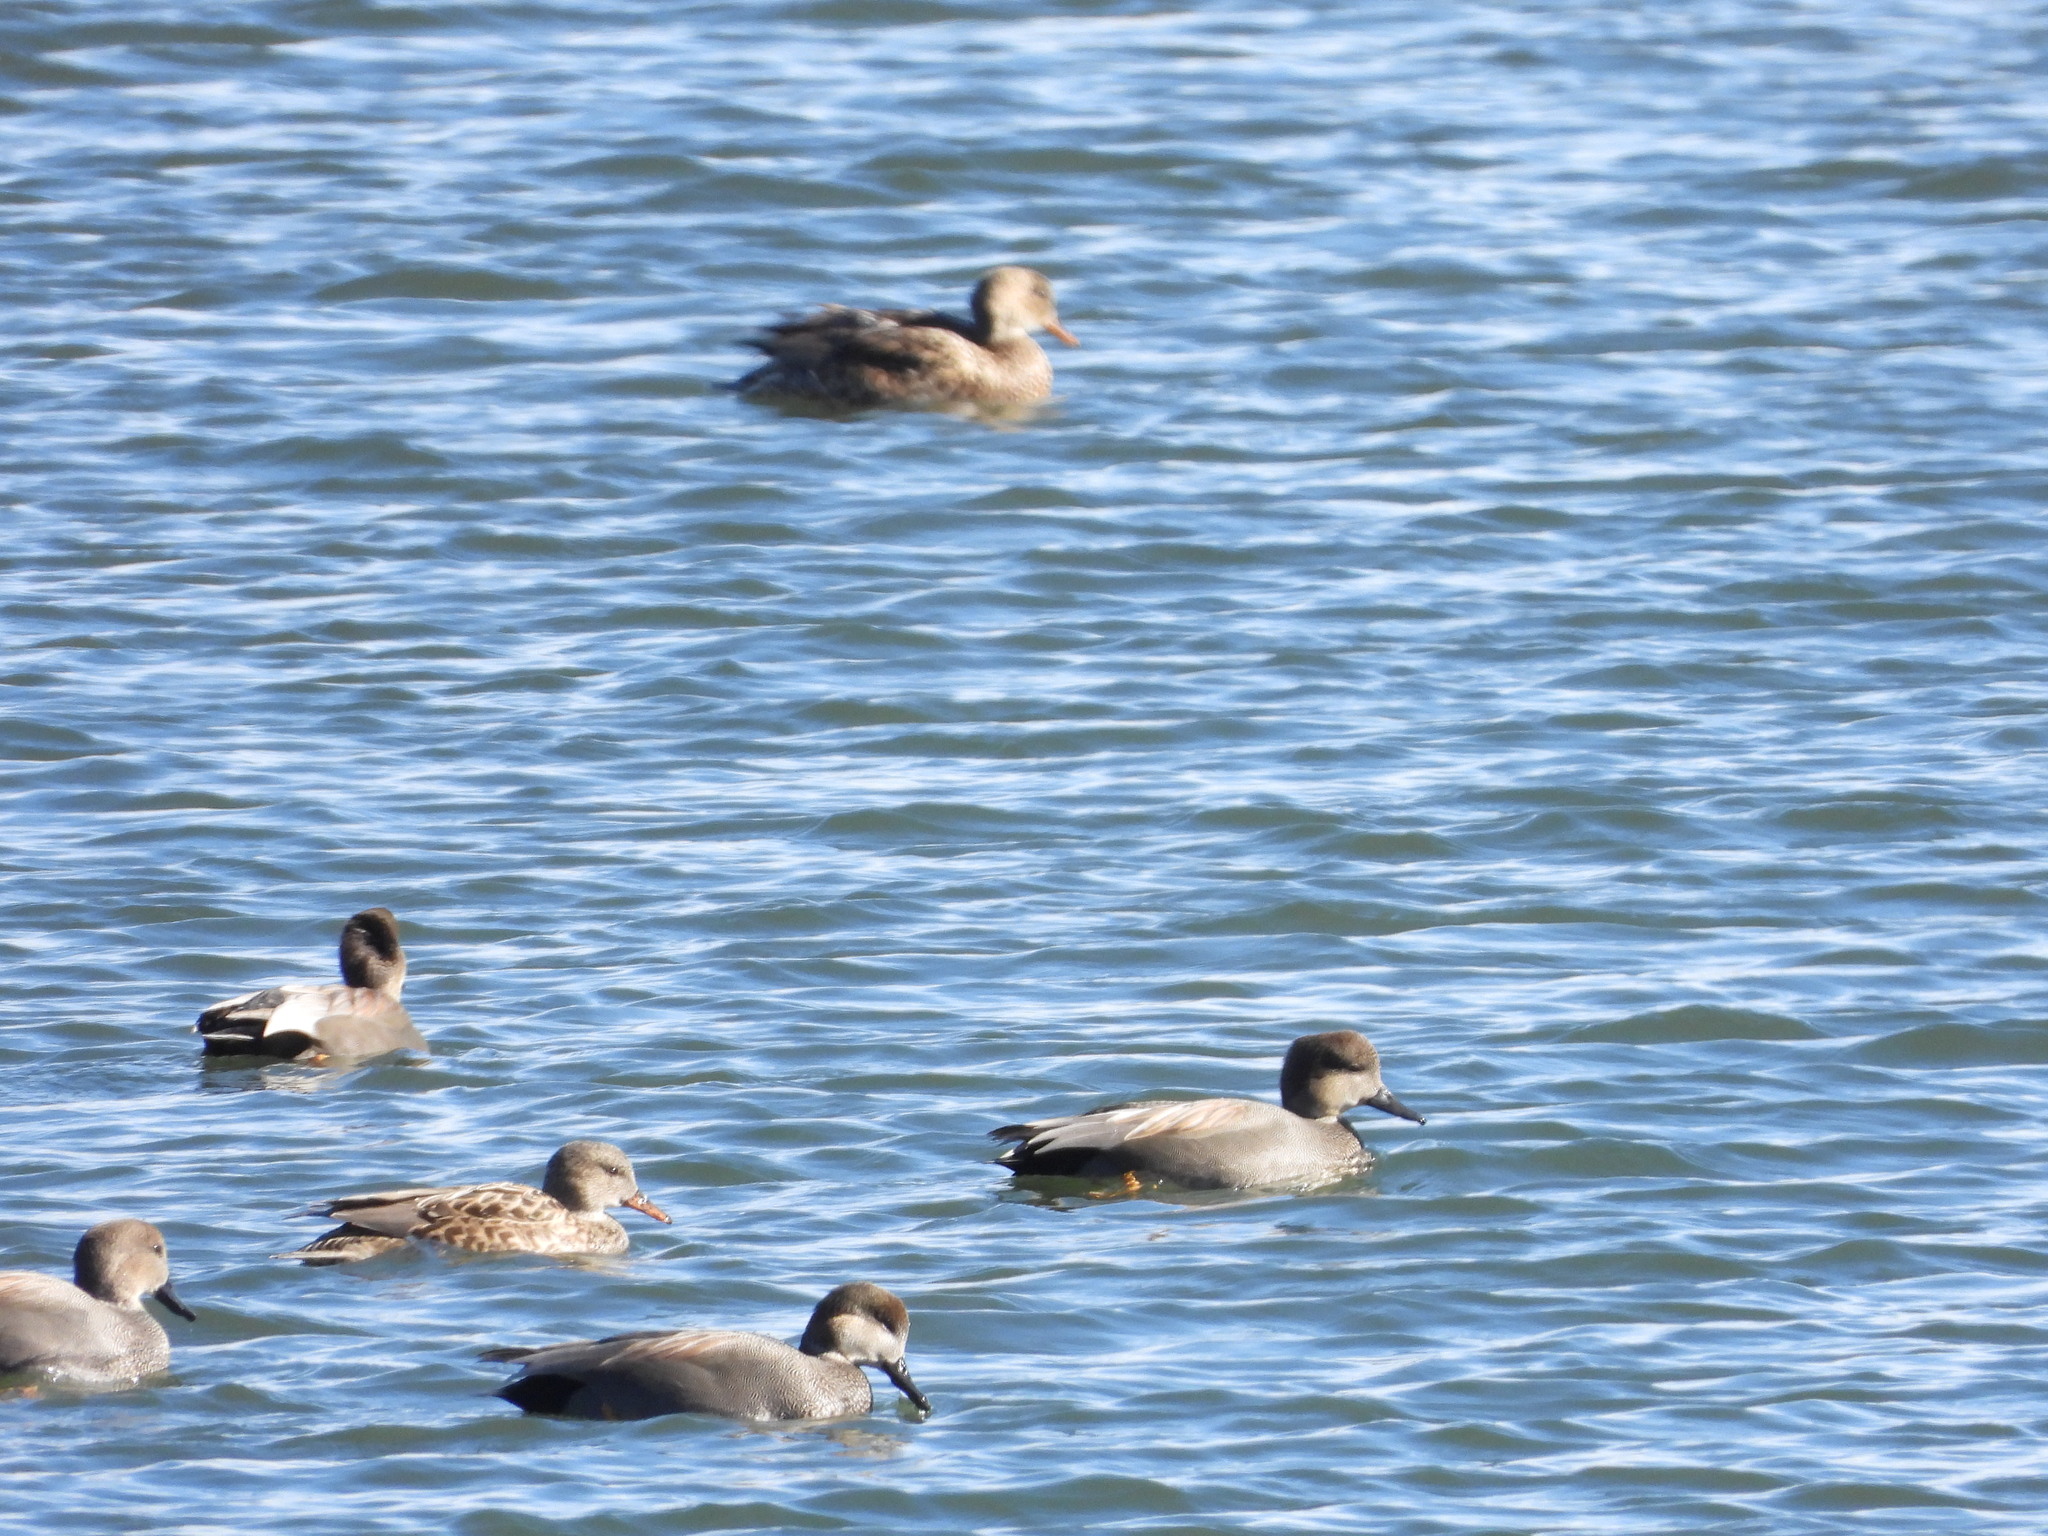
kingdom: Animalia
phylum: Chordata
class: Aves
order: Anseriformes
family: Anatidae
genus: Mareca
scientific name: Mareca strepera
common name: Gadwall
